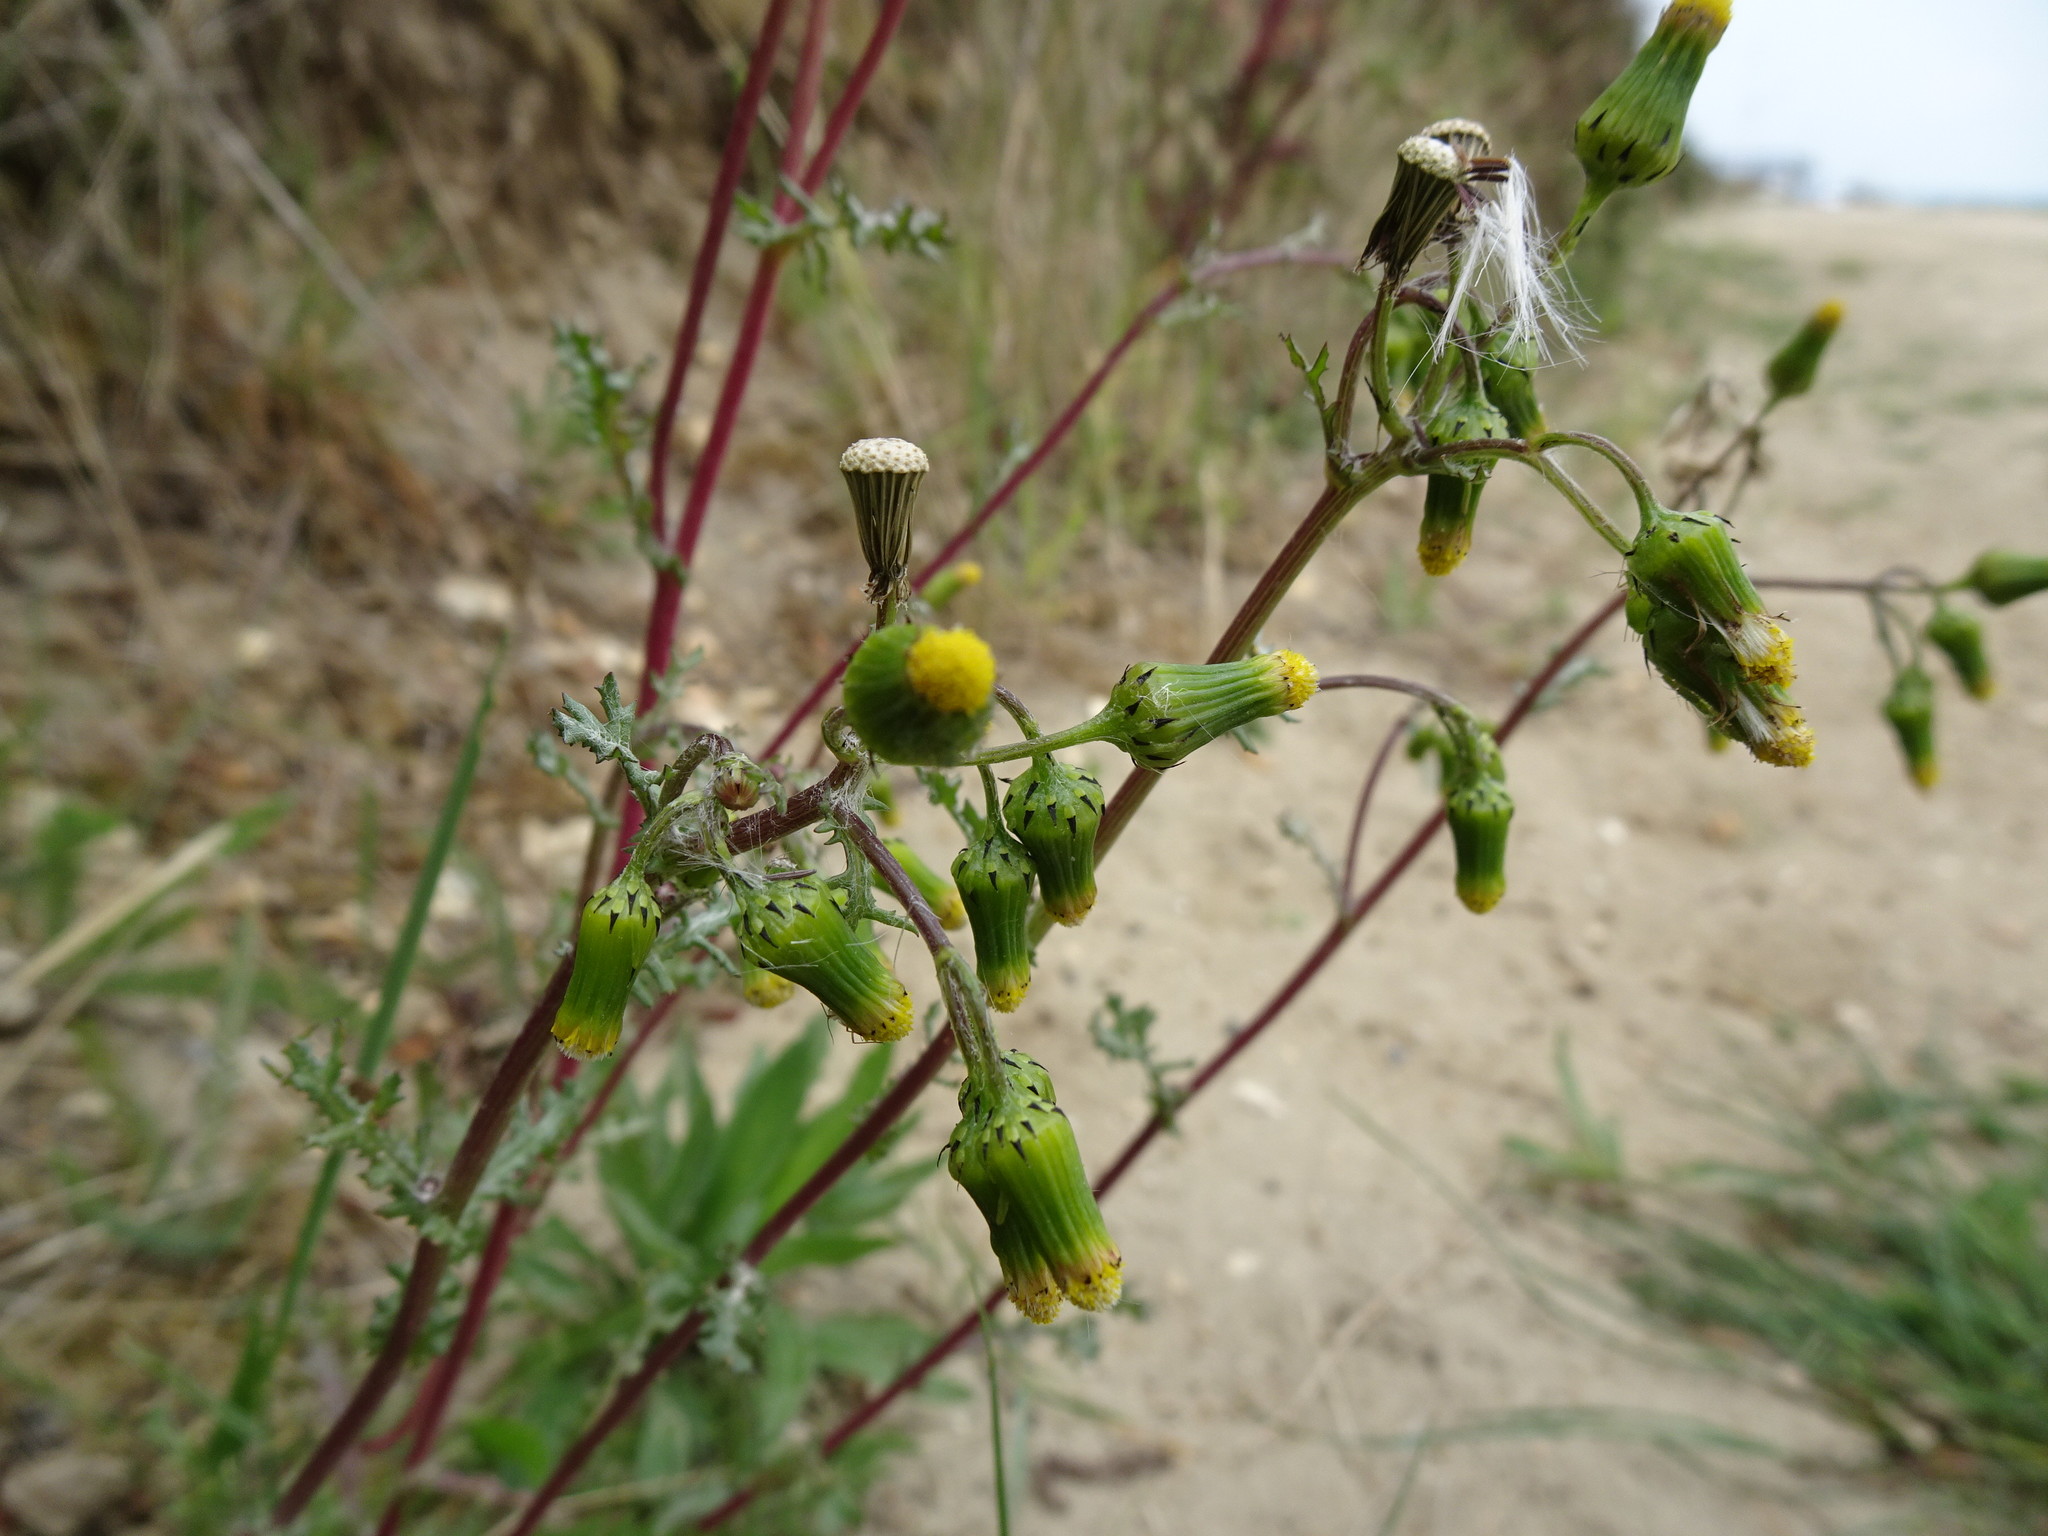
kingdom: Plantae
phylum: Tracheophyta
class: Magnoliopsida
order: Asterales
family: Asteraceae
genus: Senecio
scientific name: Senecio vulgaris
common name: Old-man-in-the-spring
